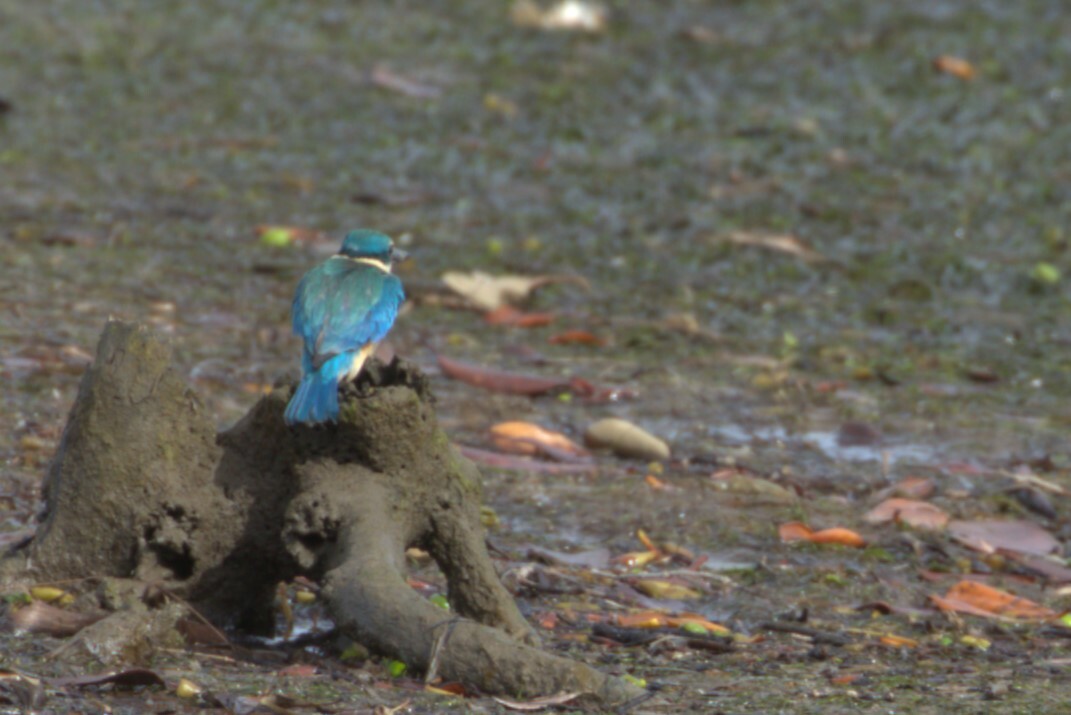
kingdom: Animalia
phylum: Chordata
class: Aves
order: Coraciiformes
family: Alcedinidae
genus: Todiramphus
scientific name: Todiramphus sanctus
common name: Sacred kingfisher
